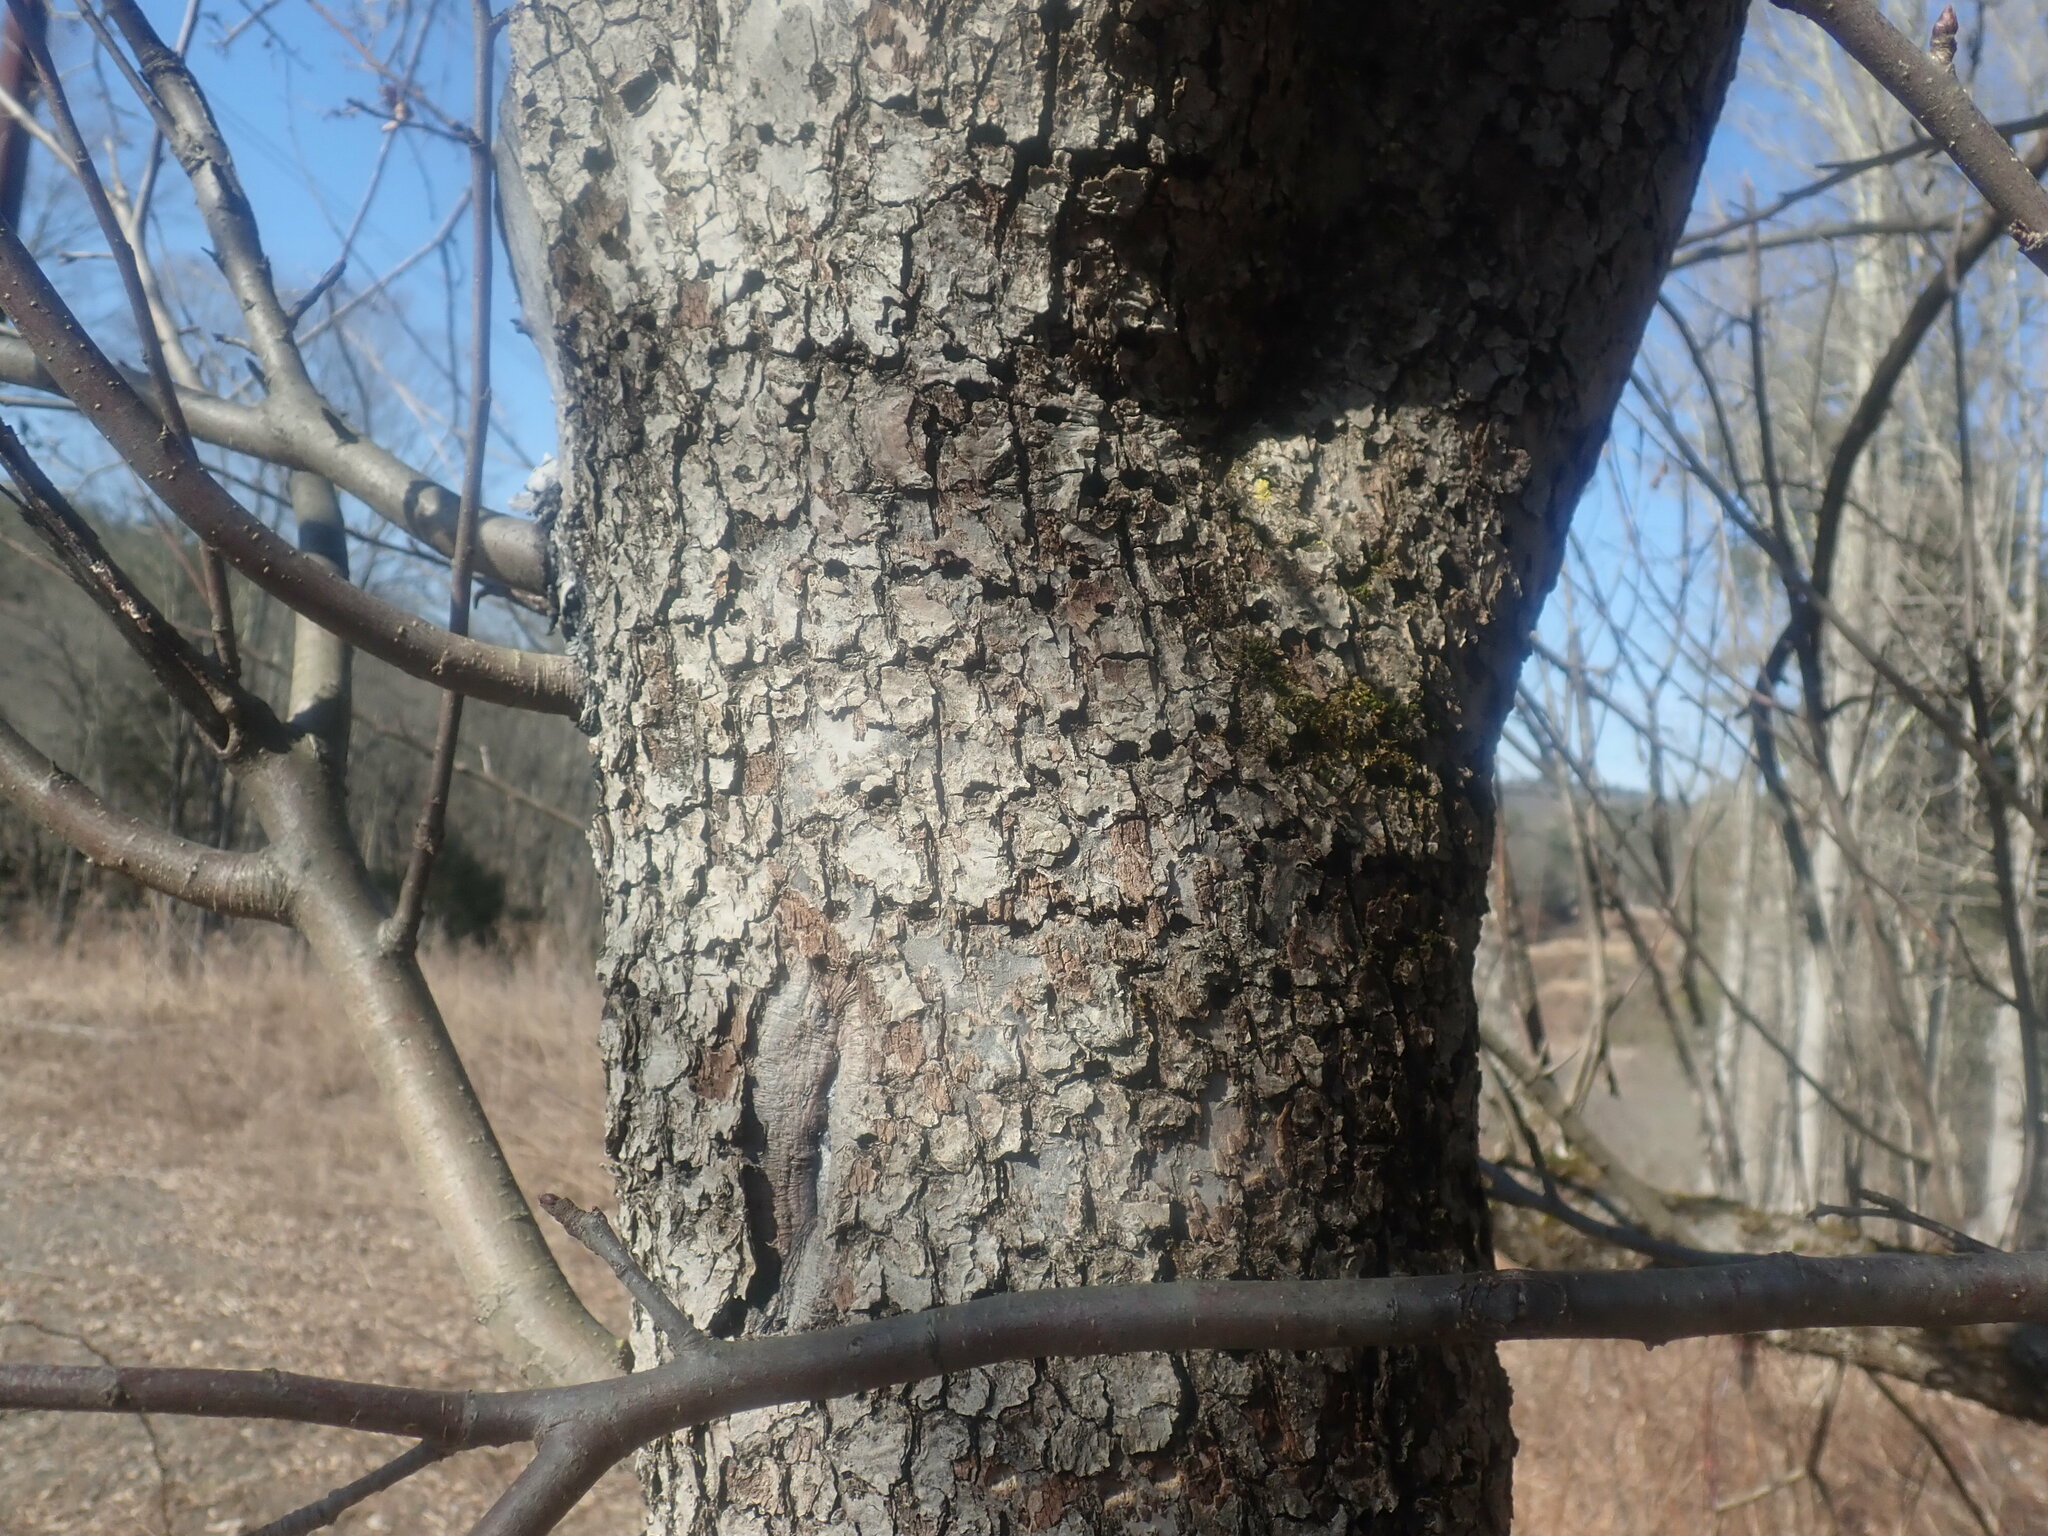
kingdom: Animalia
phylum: Chordata
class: Aves
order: Piciformes
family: Picidae
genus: Sphyrapicus
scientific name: Sphyrapicus varius
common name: Yellow-bellied sapsucker
